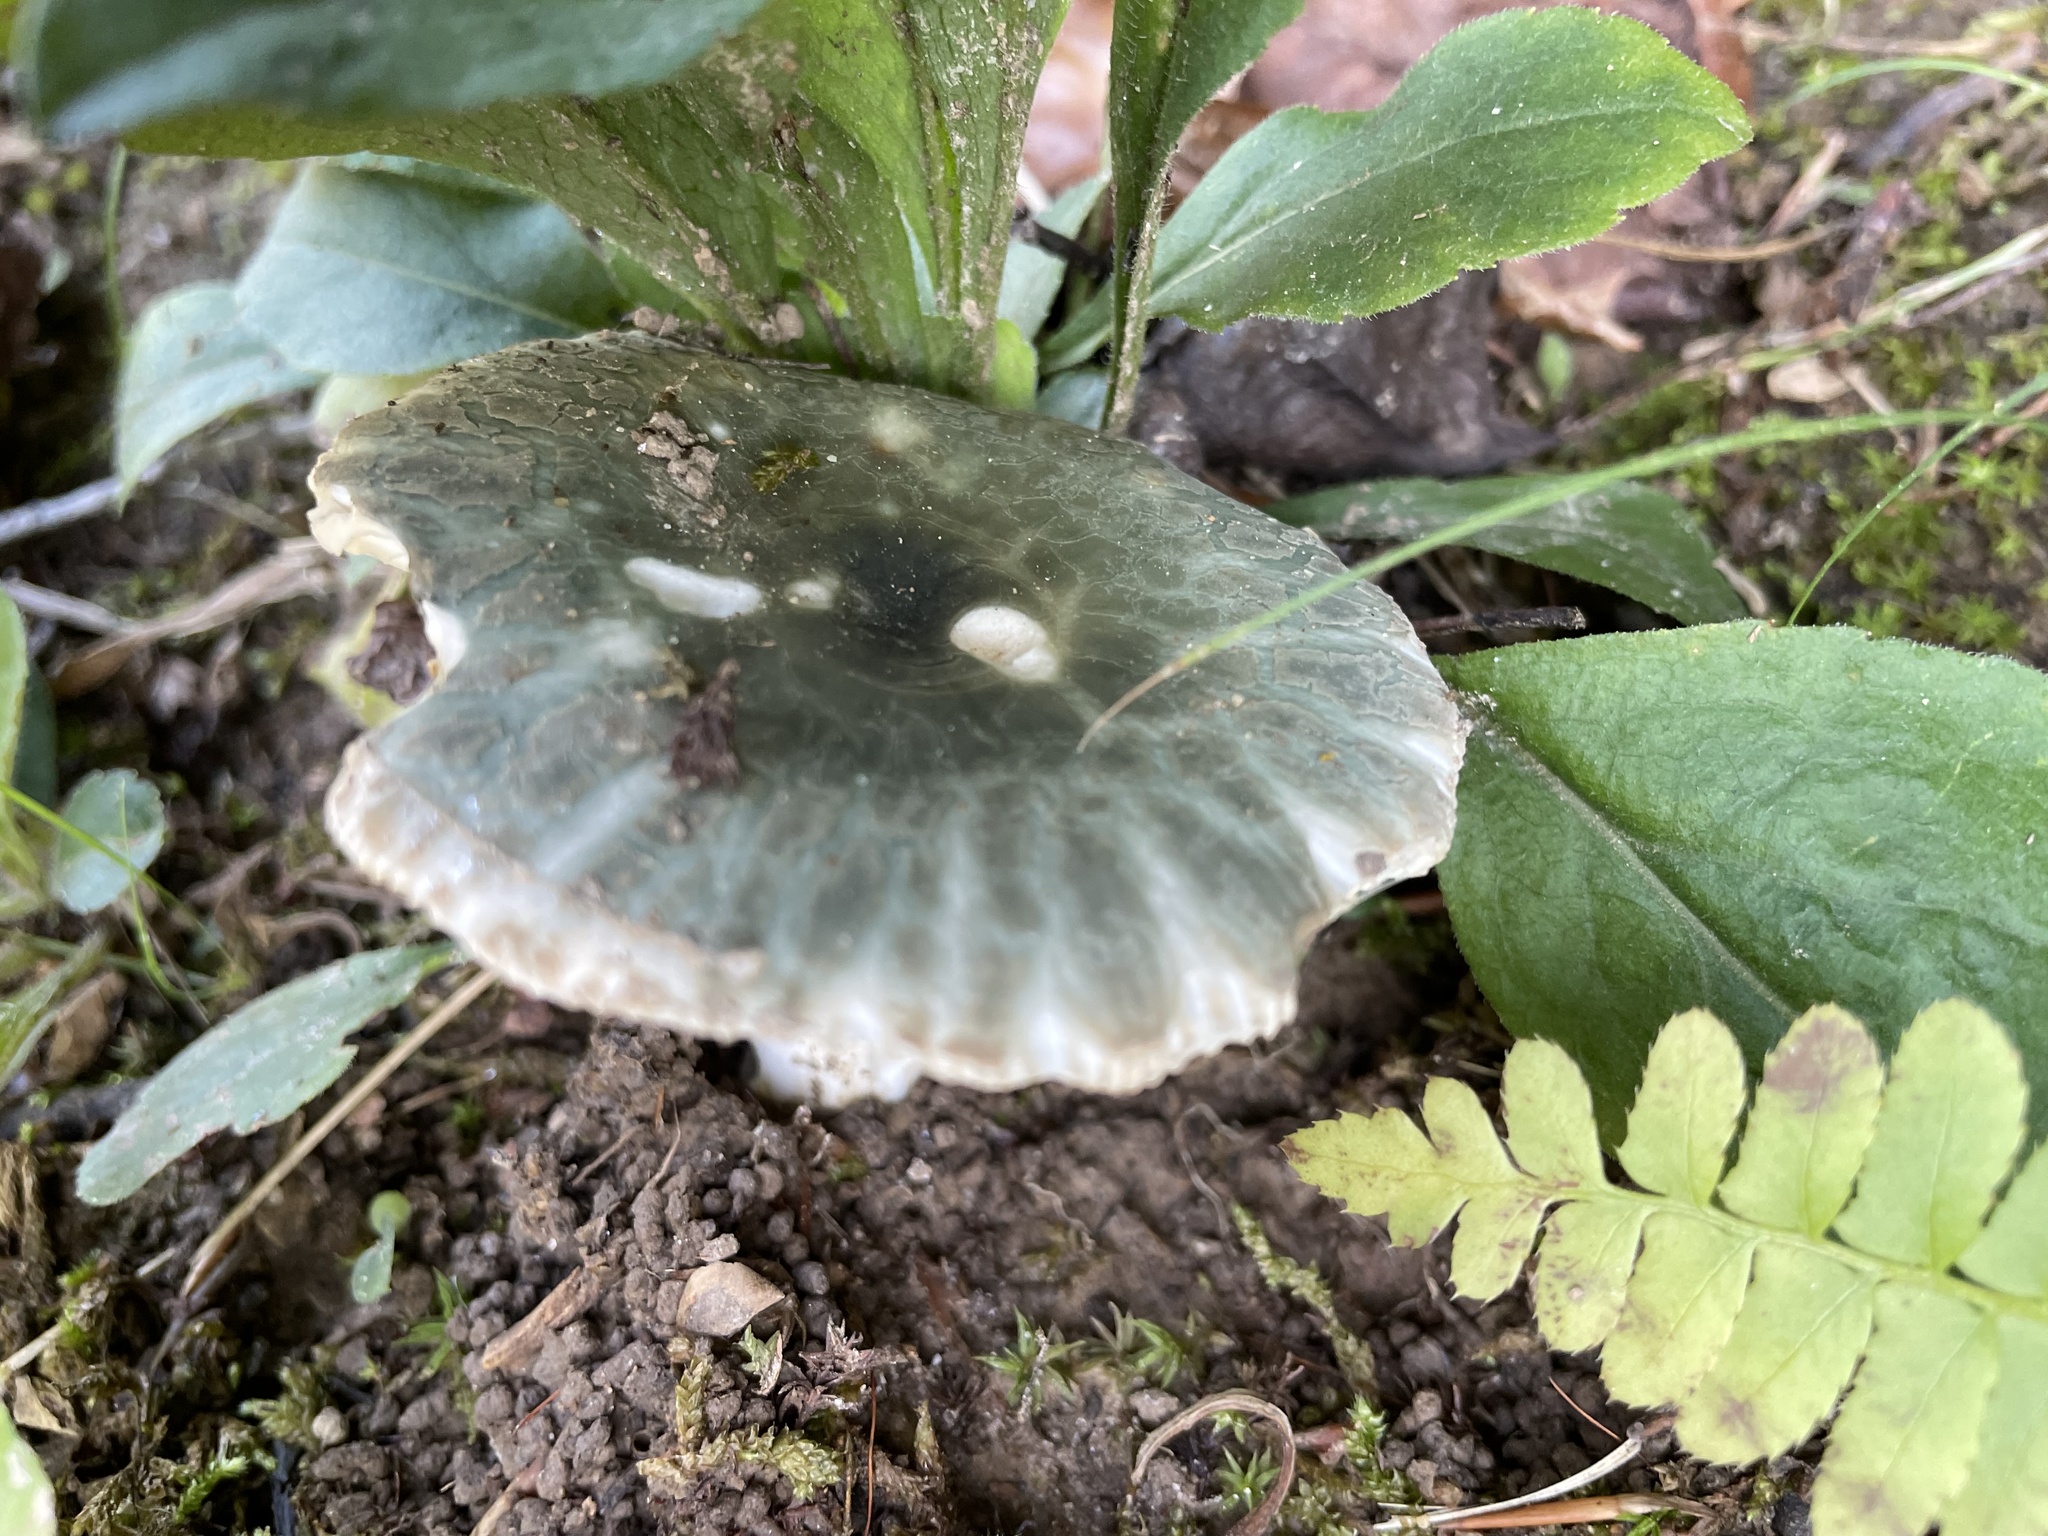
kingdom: Fungi
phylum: Basidiomycota
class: Agaricomycetes
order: Russulales
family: Russulaceae
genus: Russula
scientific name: Russula parvovirescens
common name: Blue-green cracking russula
